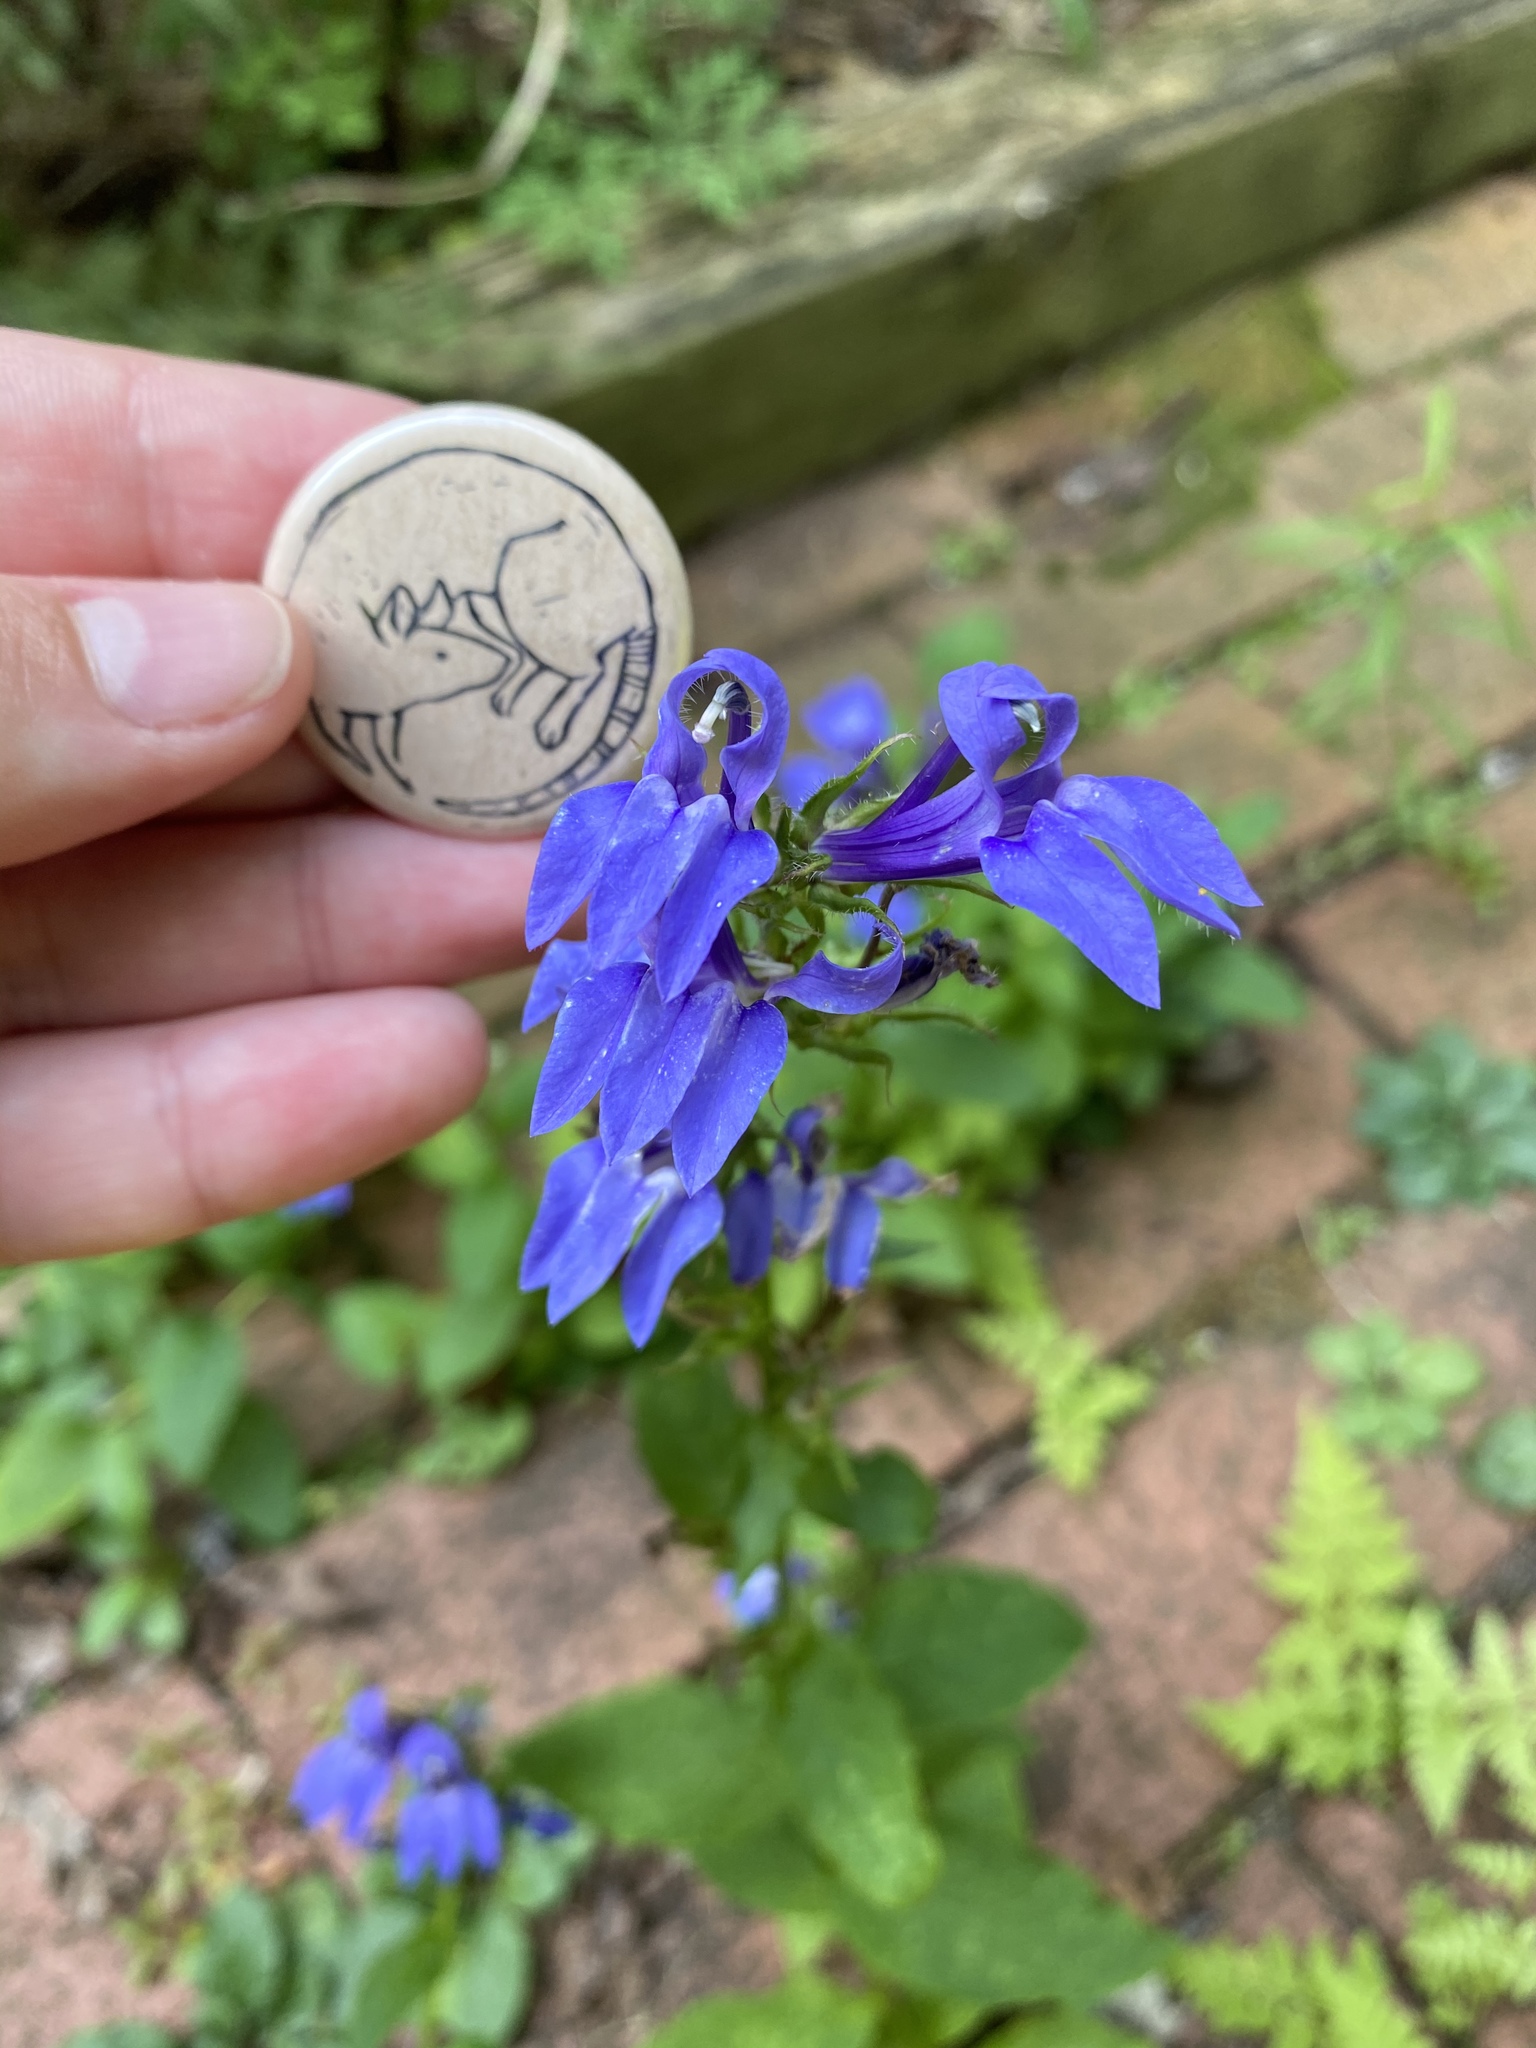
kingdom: Plantae
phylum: Tracheophyta
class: Magnoliopsida
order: Asterales
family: Campanulaceae
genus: Lobelia
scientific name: Lobelia siphilitica
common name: Great lobelia
